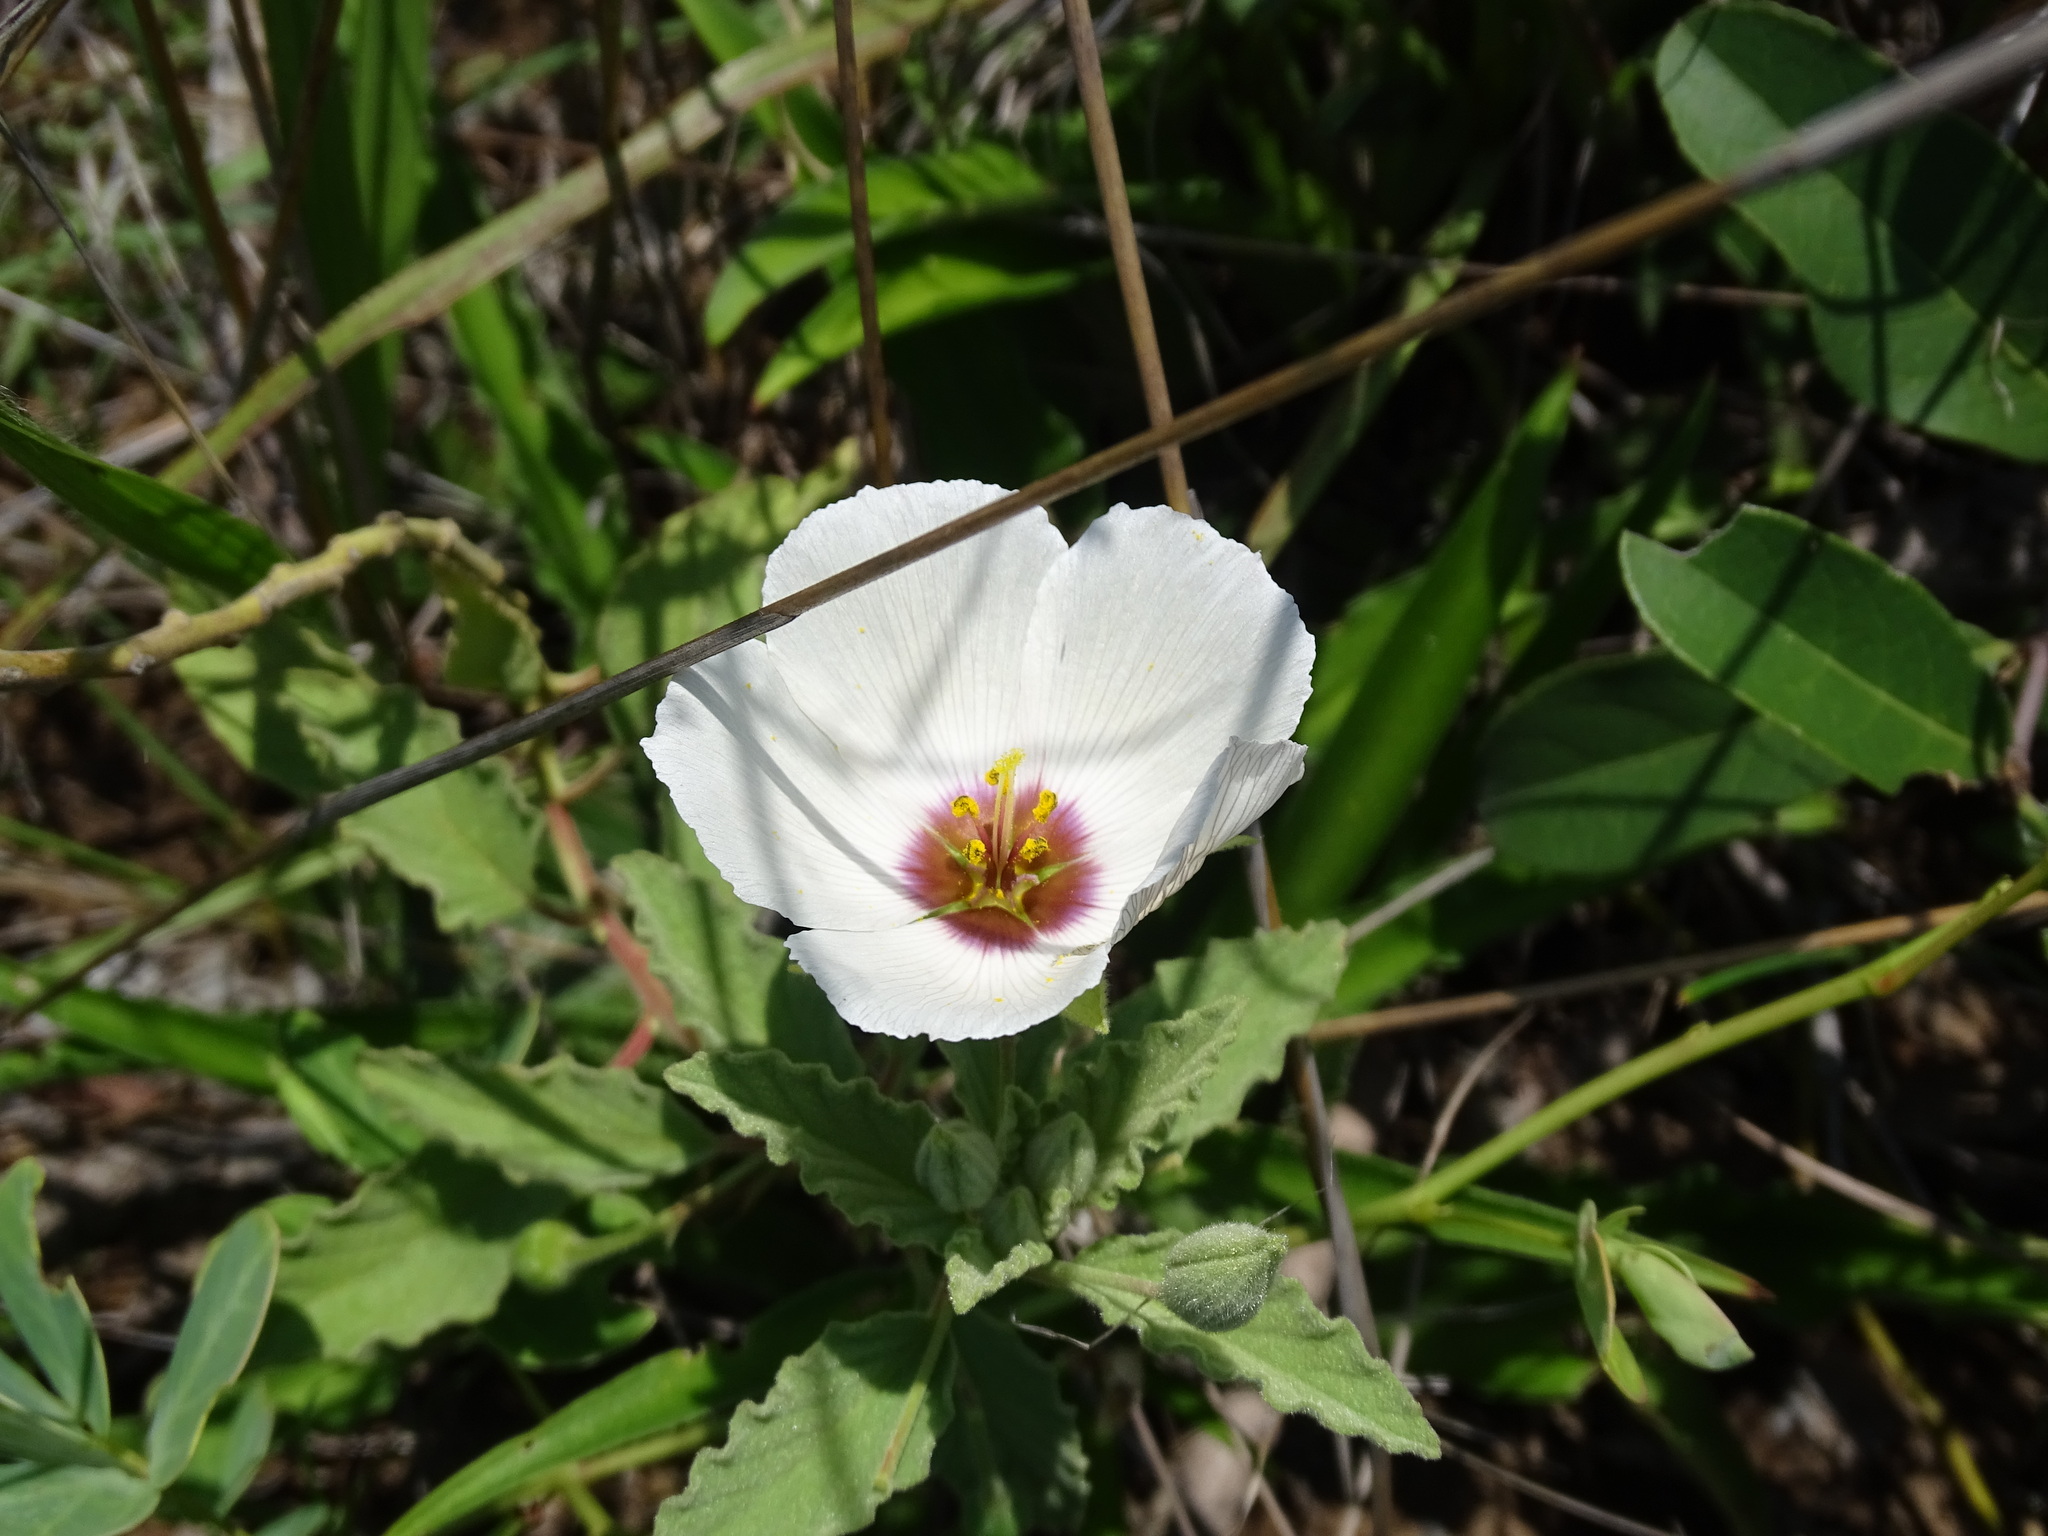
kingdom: Plantae
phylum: Tracheophyta
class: Magnoliopsida
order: Malpighiales
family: Turneraceae
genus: Piriqueta
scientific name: Piriqueta mortonii
